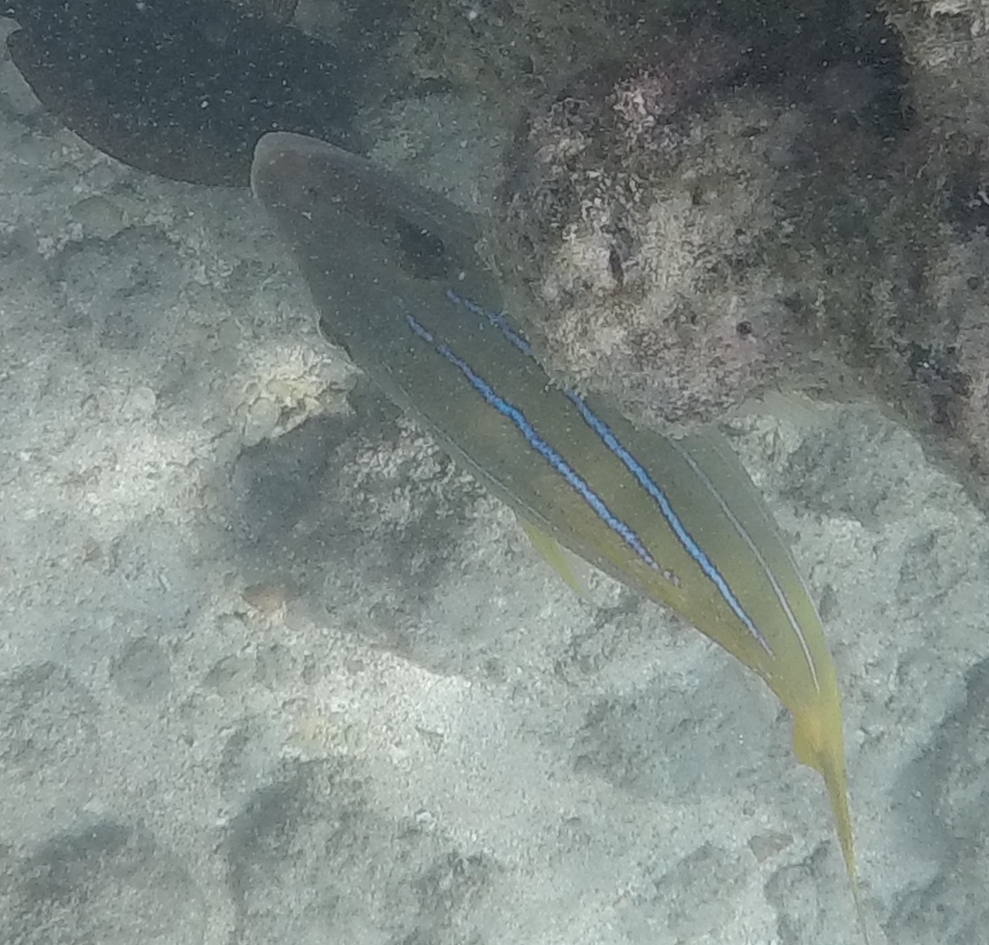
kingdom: Animalia
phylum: Chordata
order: Perciformes
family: Lutjanidae
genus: Lutjanus
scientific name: Lutjanus kasmira
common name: Common bluestripe snapper
